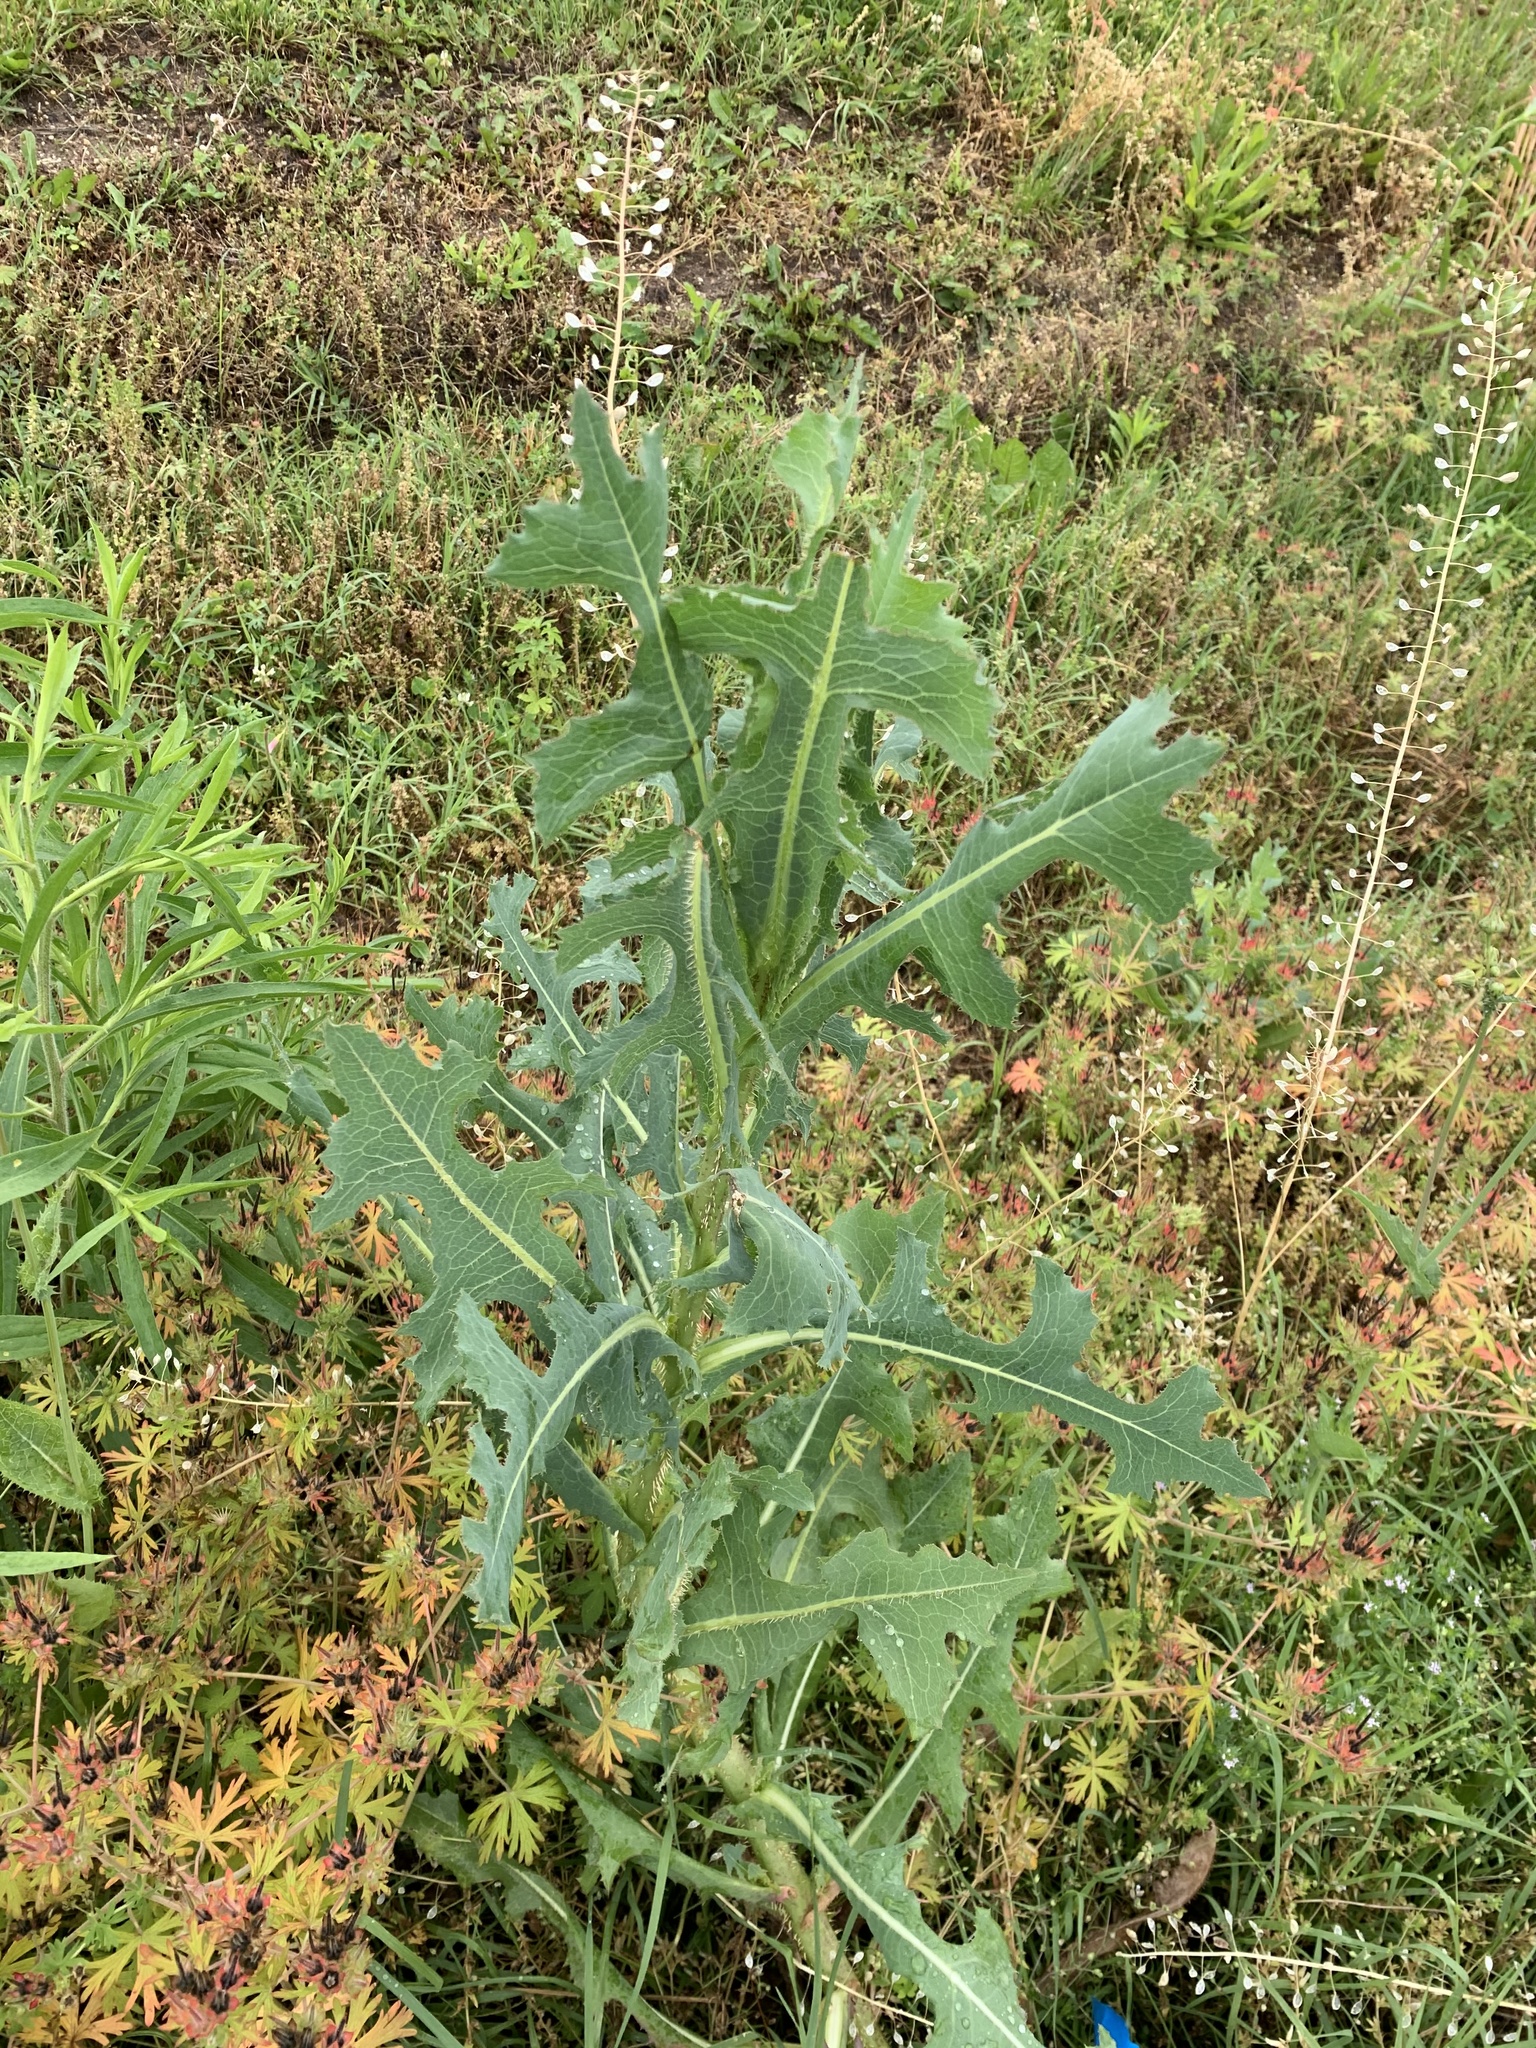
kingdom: Plantae
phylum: Tracheophyta
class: Magnoliopsida
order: Asterales
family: Asteraceae
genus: Lactuca
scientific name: Lactuca serriola
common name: Prickly lettuce
